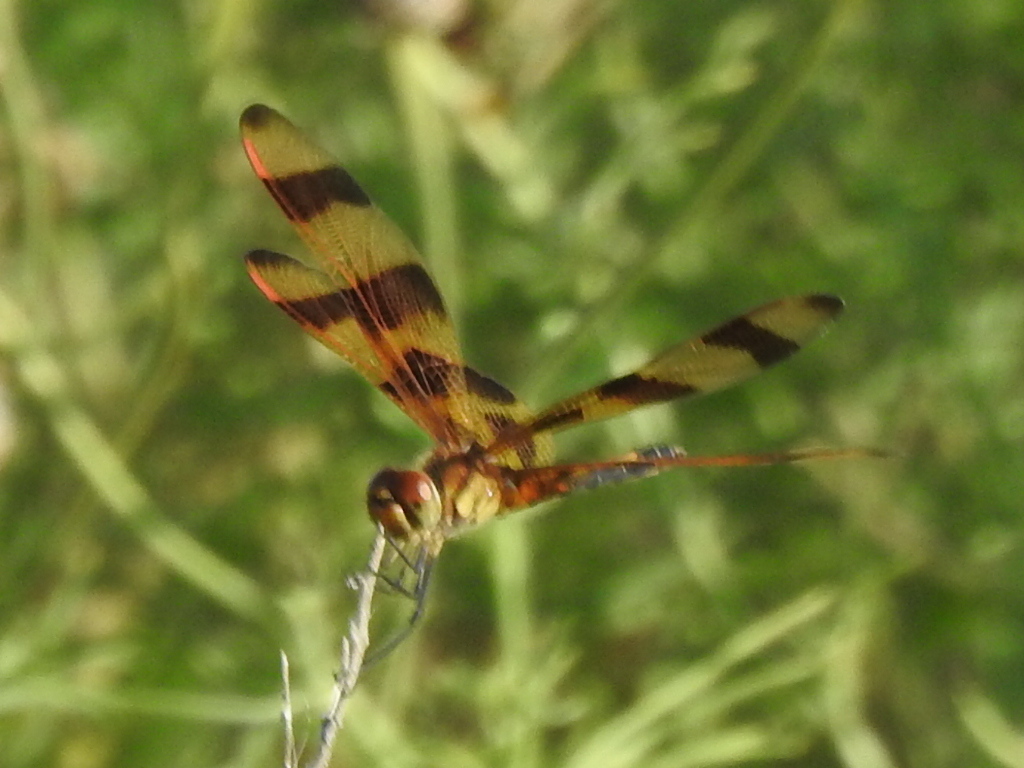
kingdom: Animalia
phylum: Arthropoda
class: Insecta
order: Odonata
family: Libellulidae
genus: Celithemis
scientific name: Celithemis eponina
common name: Halloween pennant
